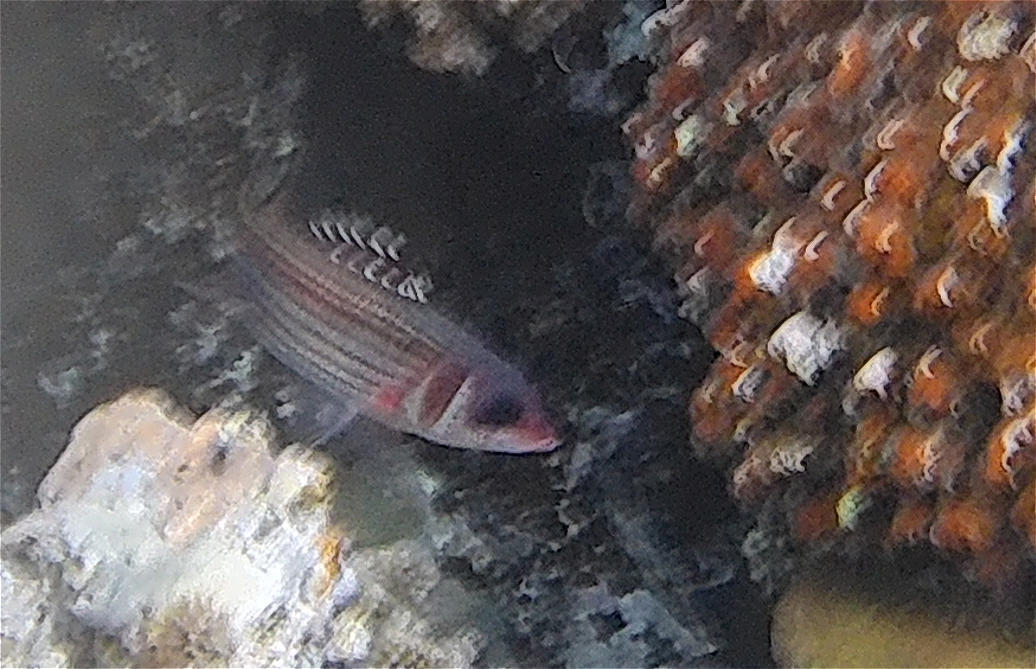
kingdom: Animalia
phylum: Chordata
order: Beryciformes
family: Holocentridae
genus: Neoniphon
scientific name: Neoniphon sammara
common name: Sammara squirrelfish
